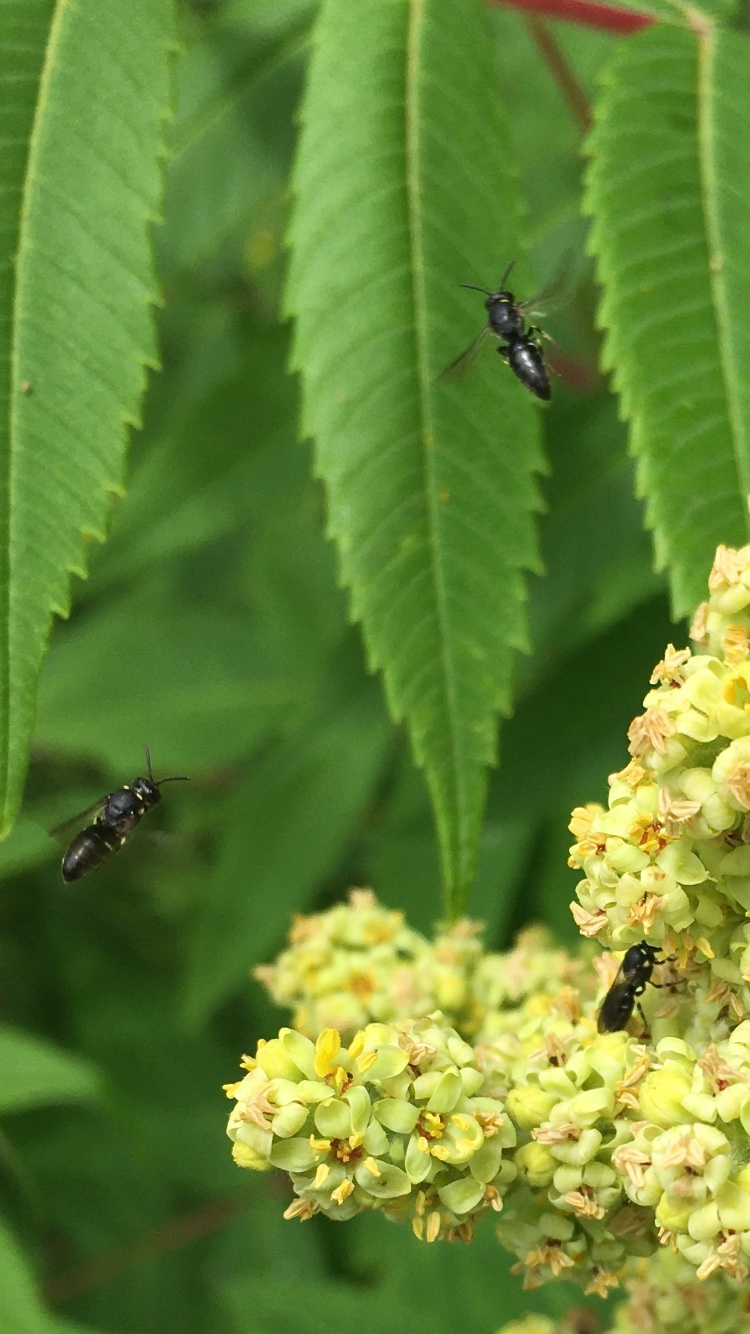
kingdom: Animalia
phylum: Arthropoda
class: Insecta
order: Hymenoptera
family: Colletidae
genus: Hylaeus
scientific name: Hylaeus modestus
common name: Yellow-faced bee
